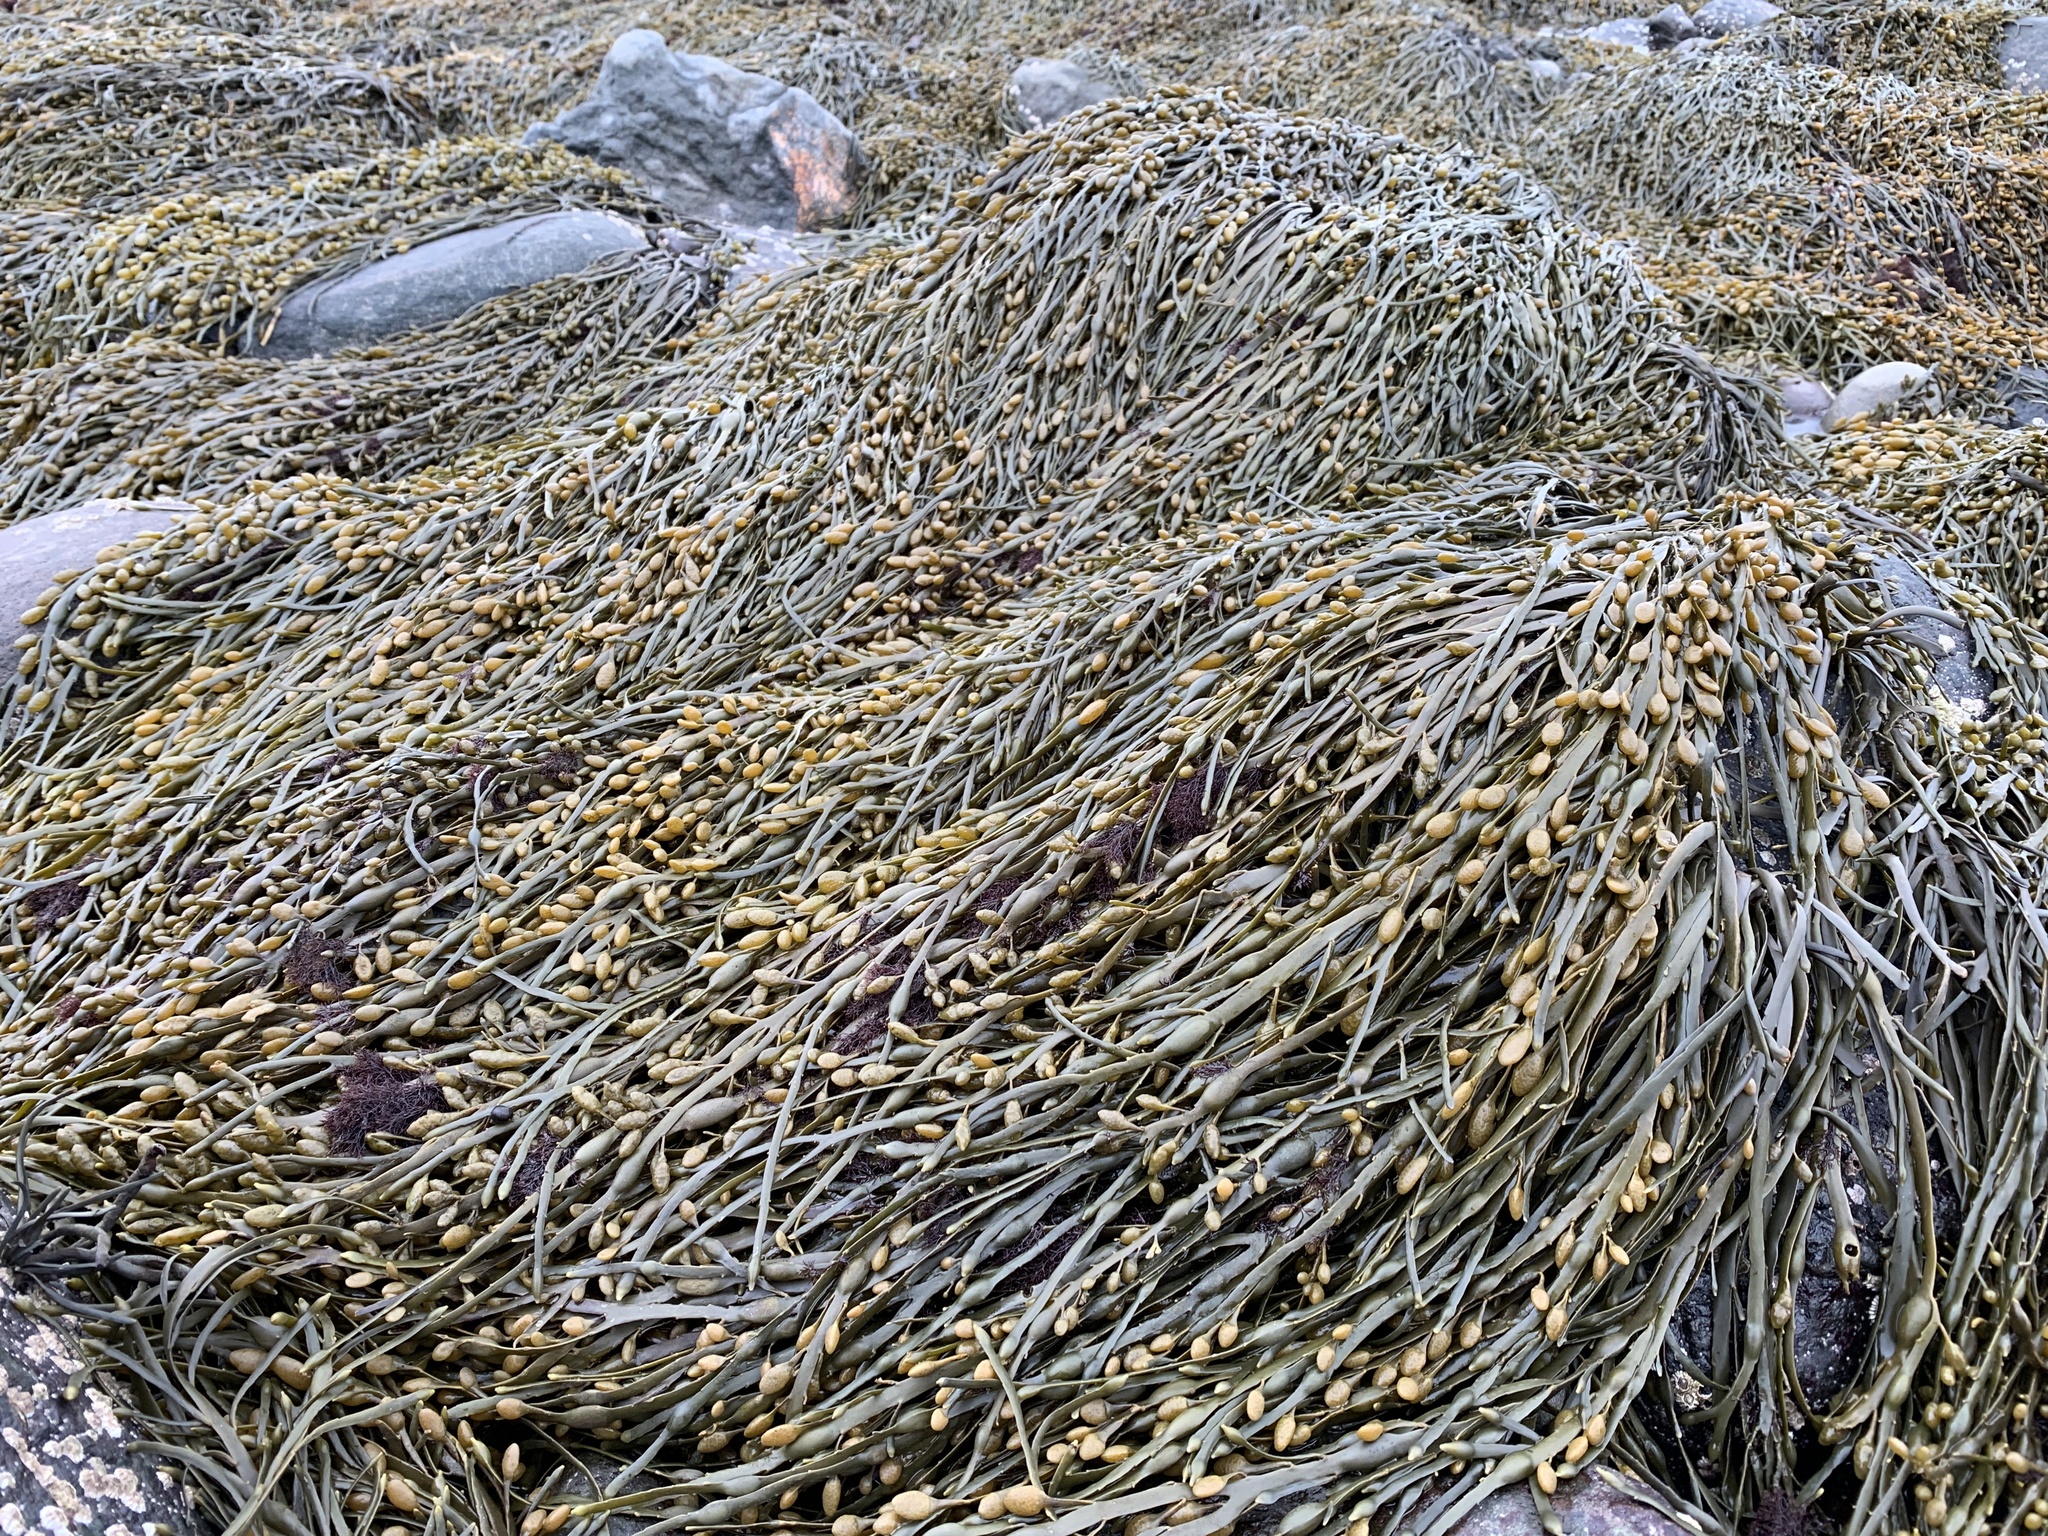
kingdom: Chromista
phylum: Ochrophyta
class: Phaeophyceae
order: Fucales
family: Fucaceae
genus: Ascophyllum
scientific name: Ascophyllum nodosum
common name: Knotted wrack
